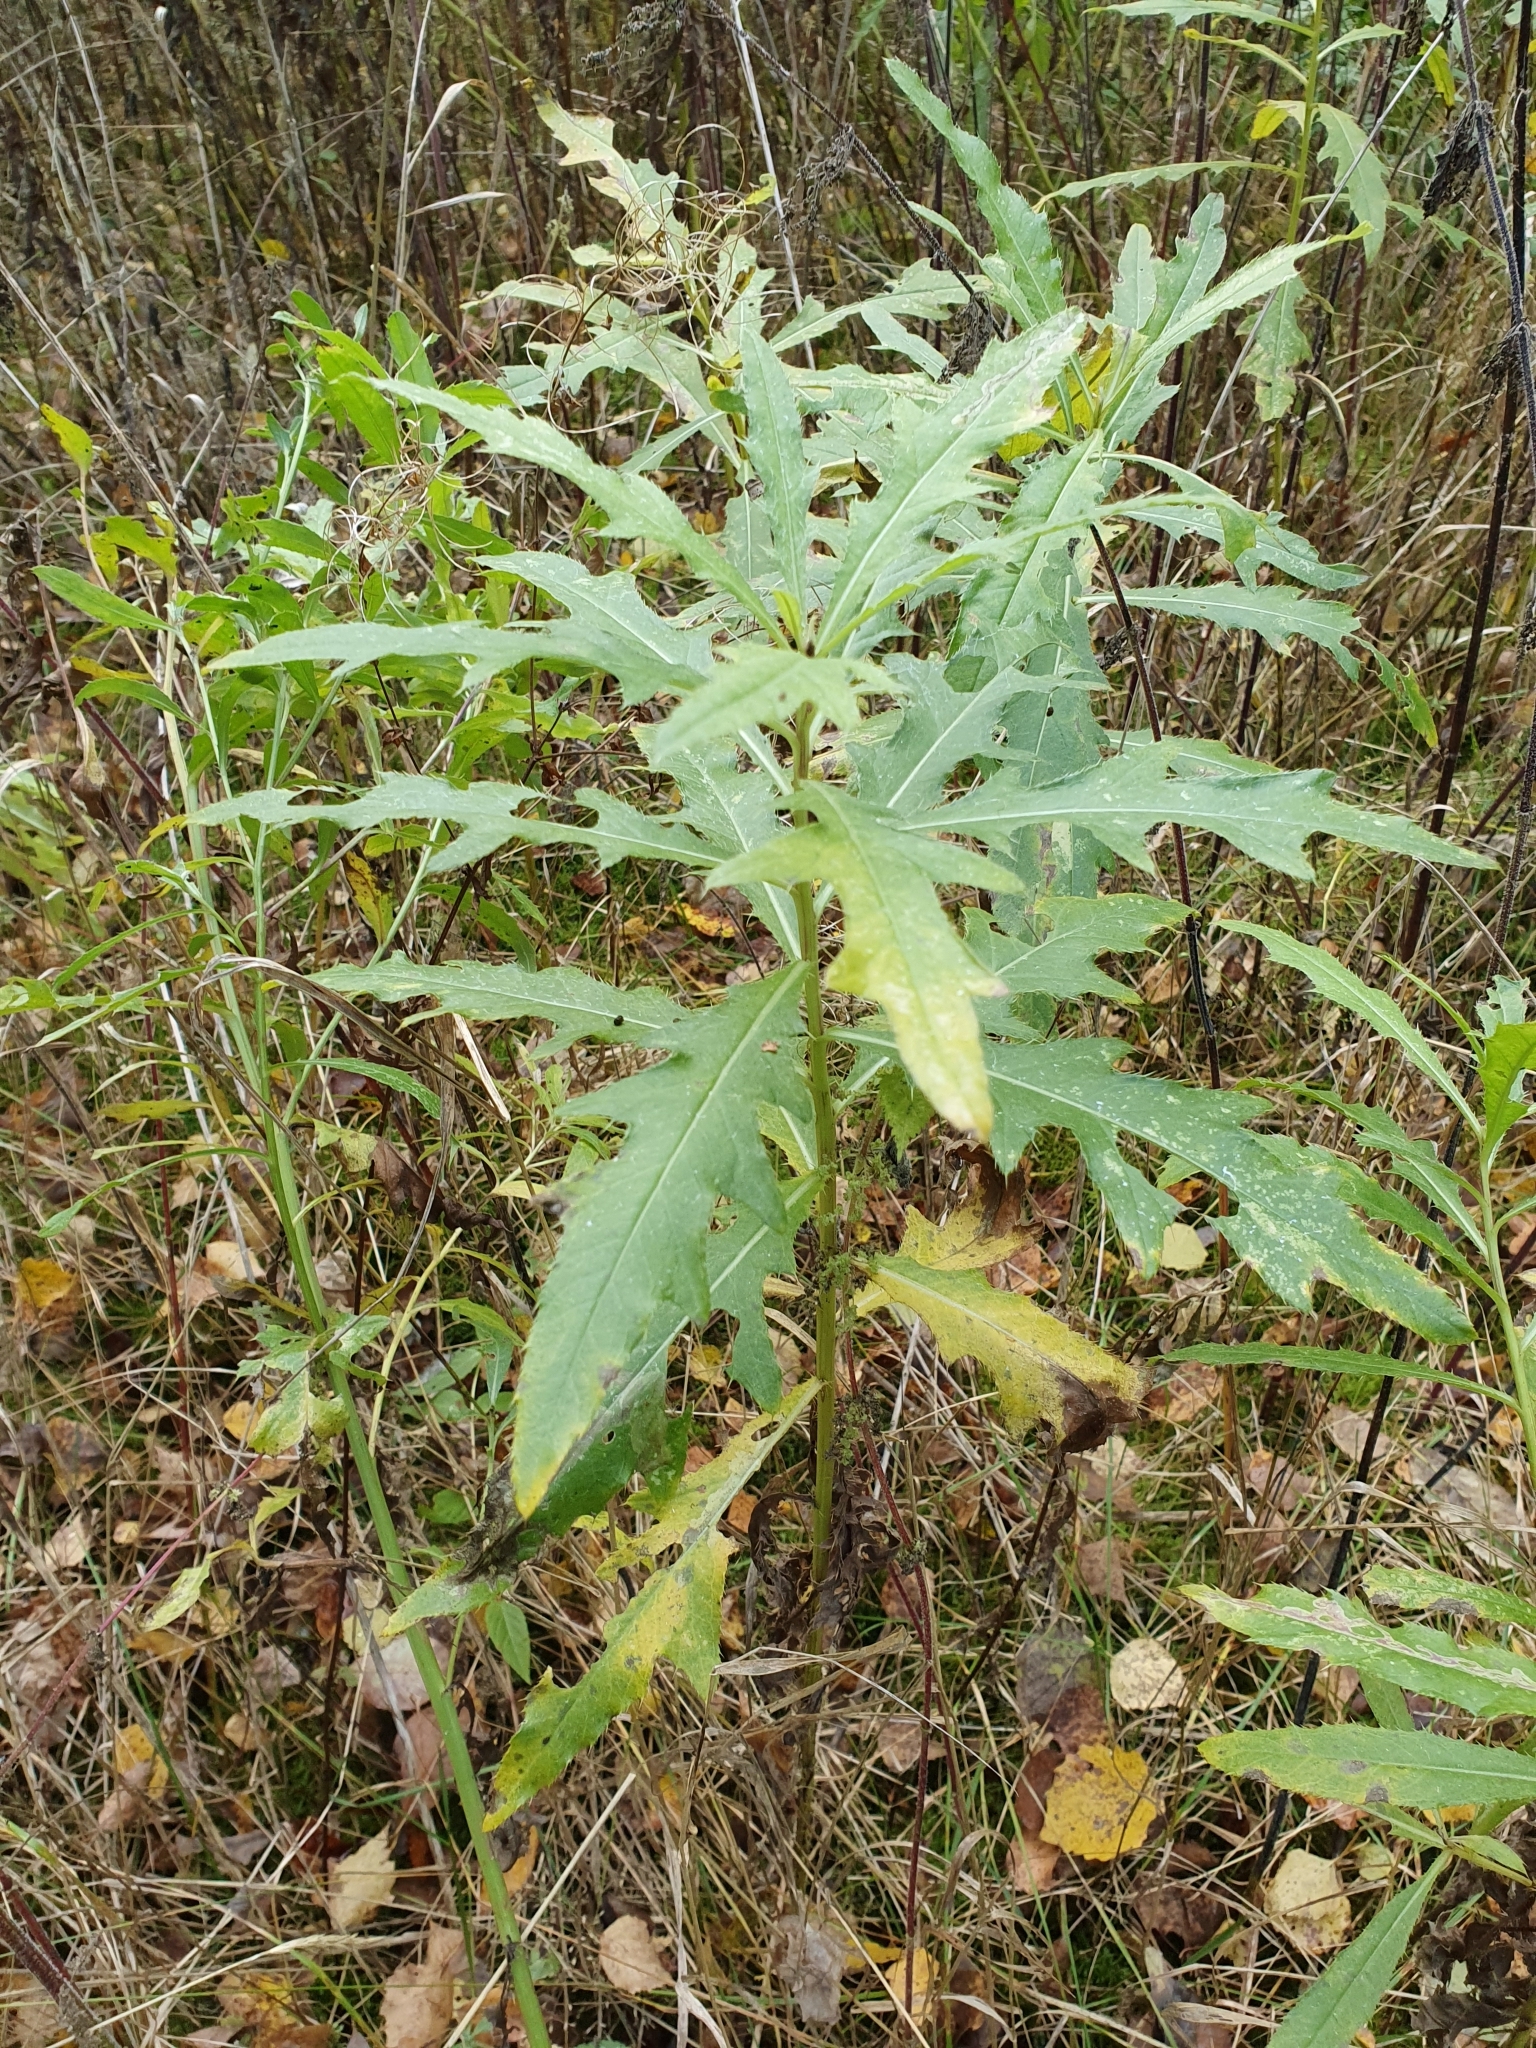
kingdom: Plantae
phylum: Tracheophyta
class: Magnoliopsida
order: Asterales
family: Asteraceae
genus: Cirsium
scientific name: Cirsium arvense
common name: Creeping thistle
